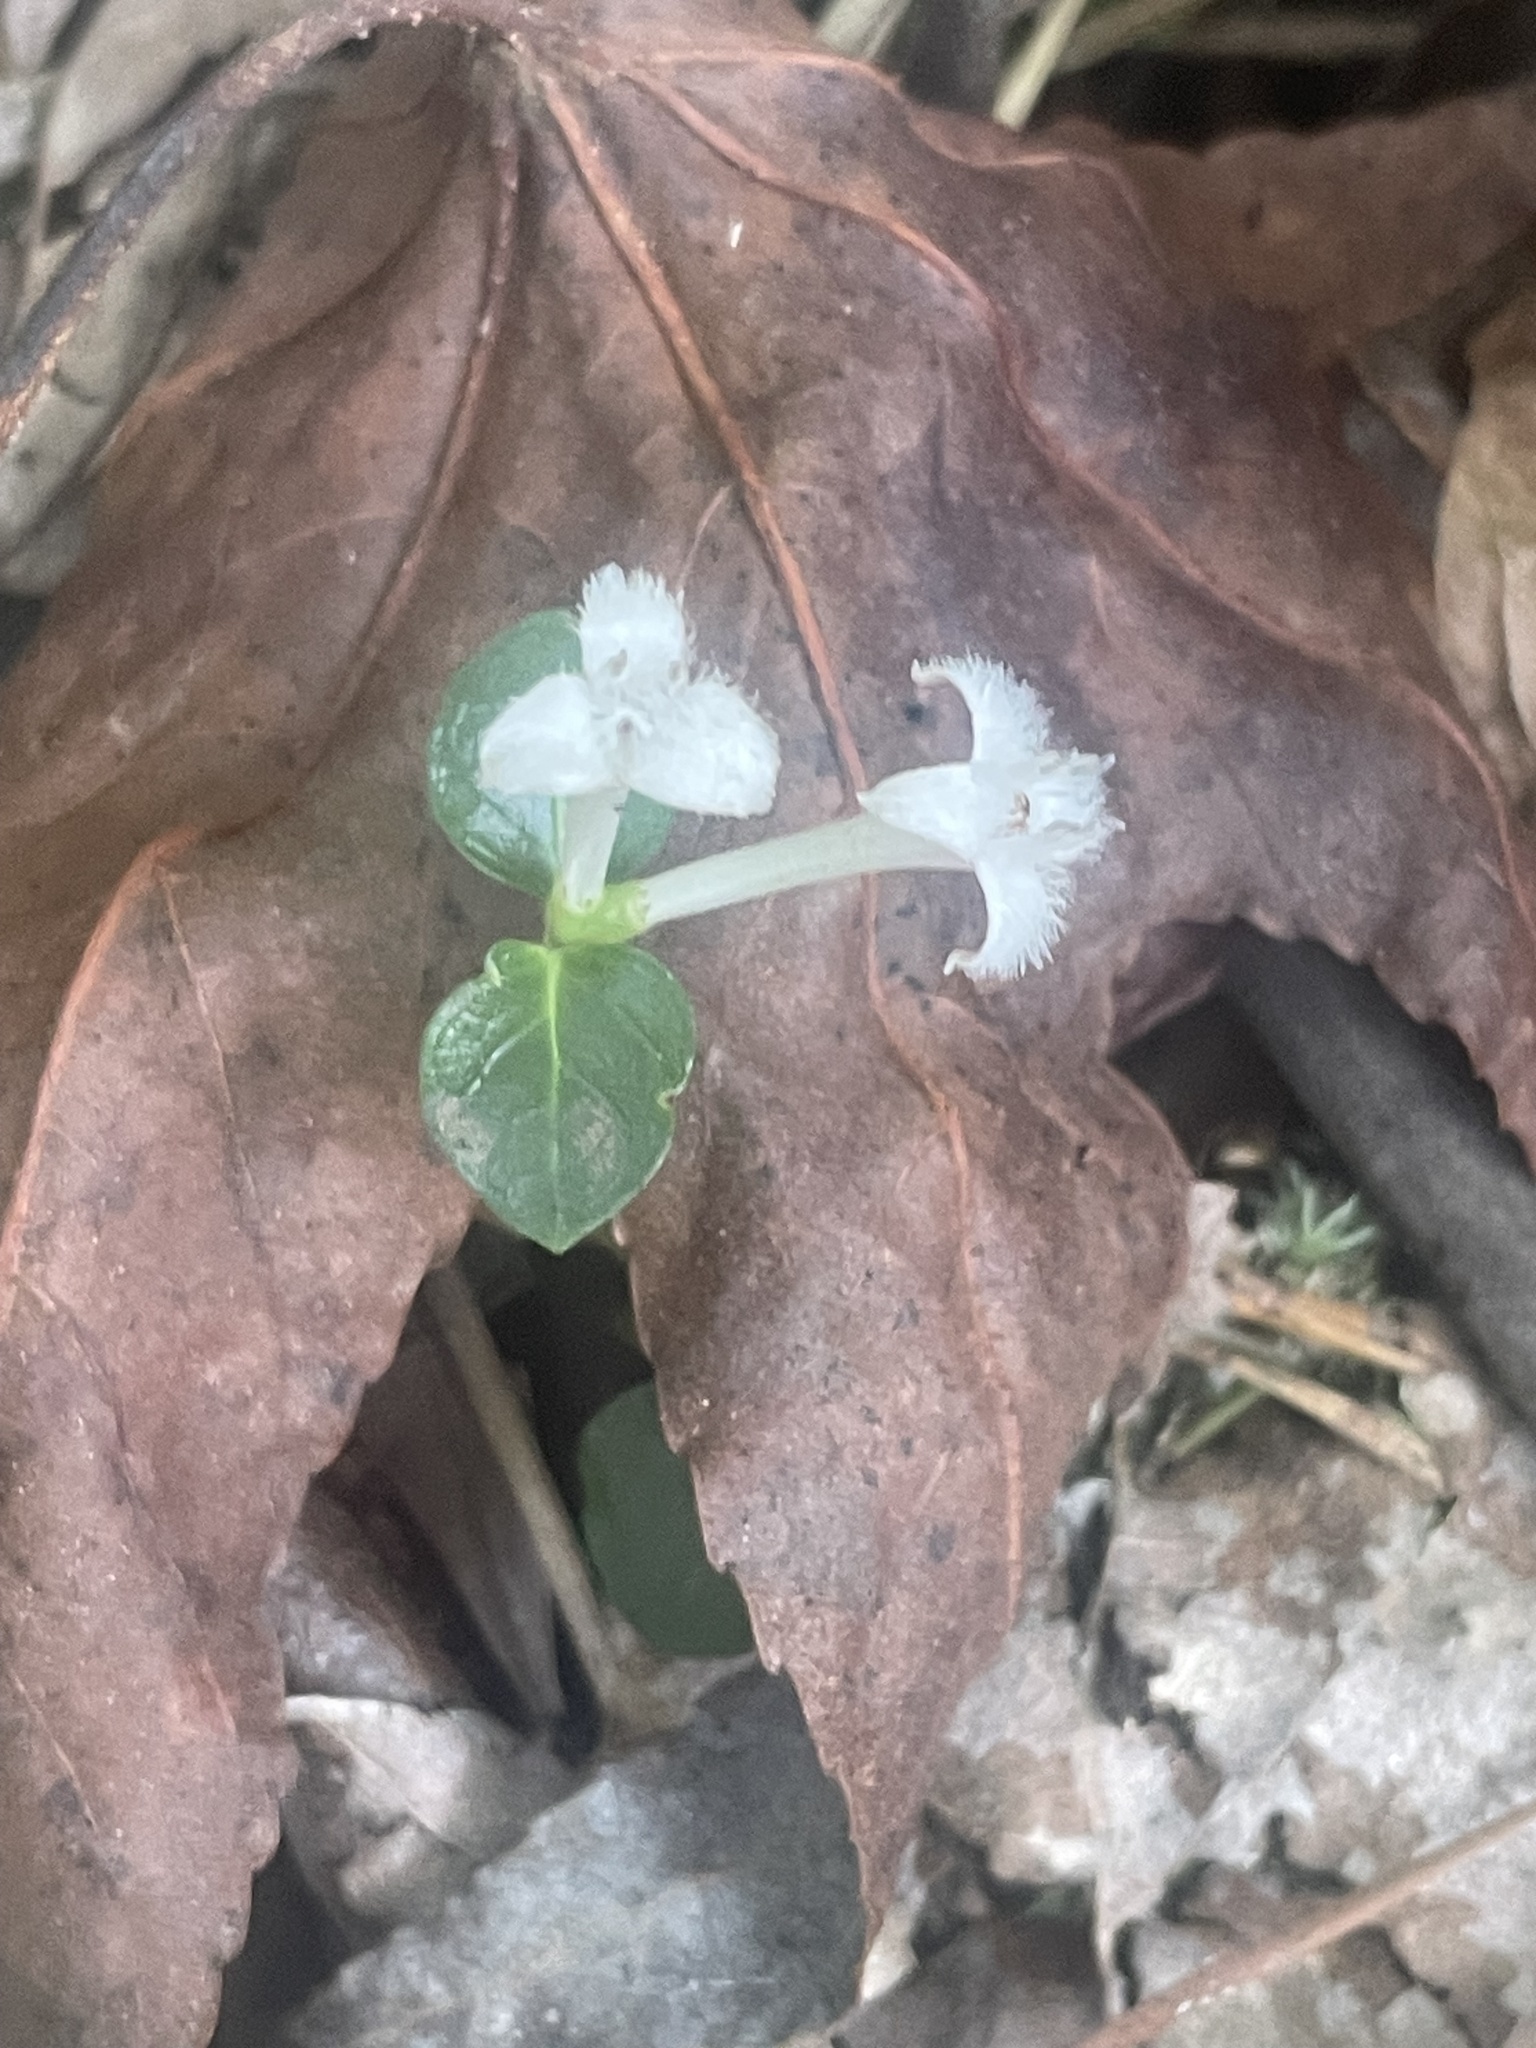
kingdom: Plantae
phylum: Tracheophyta
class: Magnoliopsida
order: Gentianales
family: Rubiaceae
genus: Mitchella
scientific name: Mitchella repens
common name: Partridge-berry
